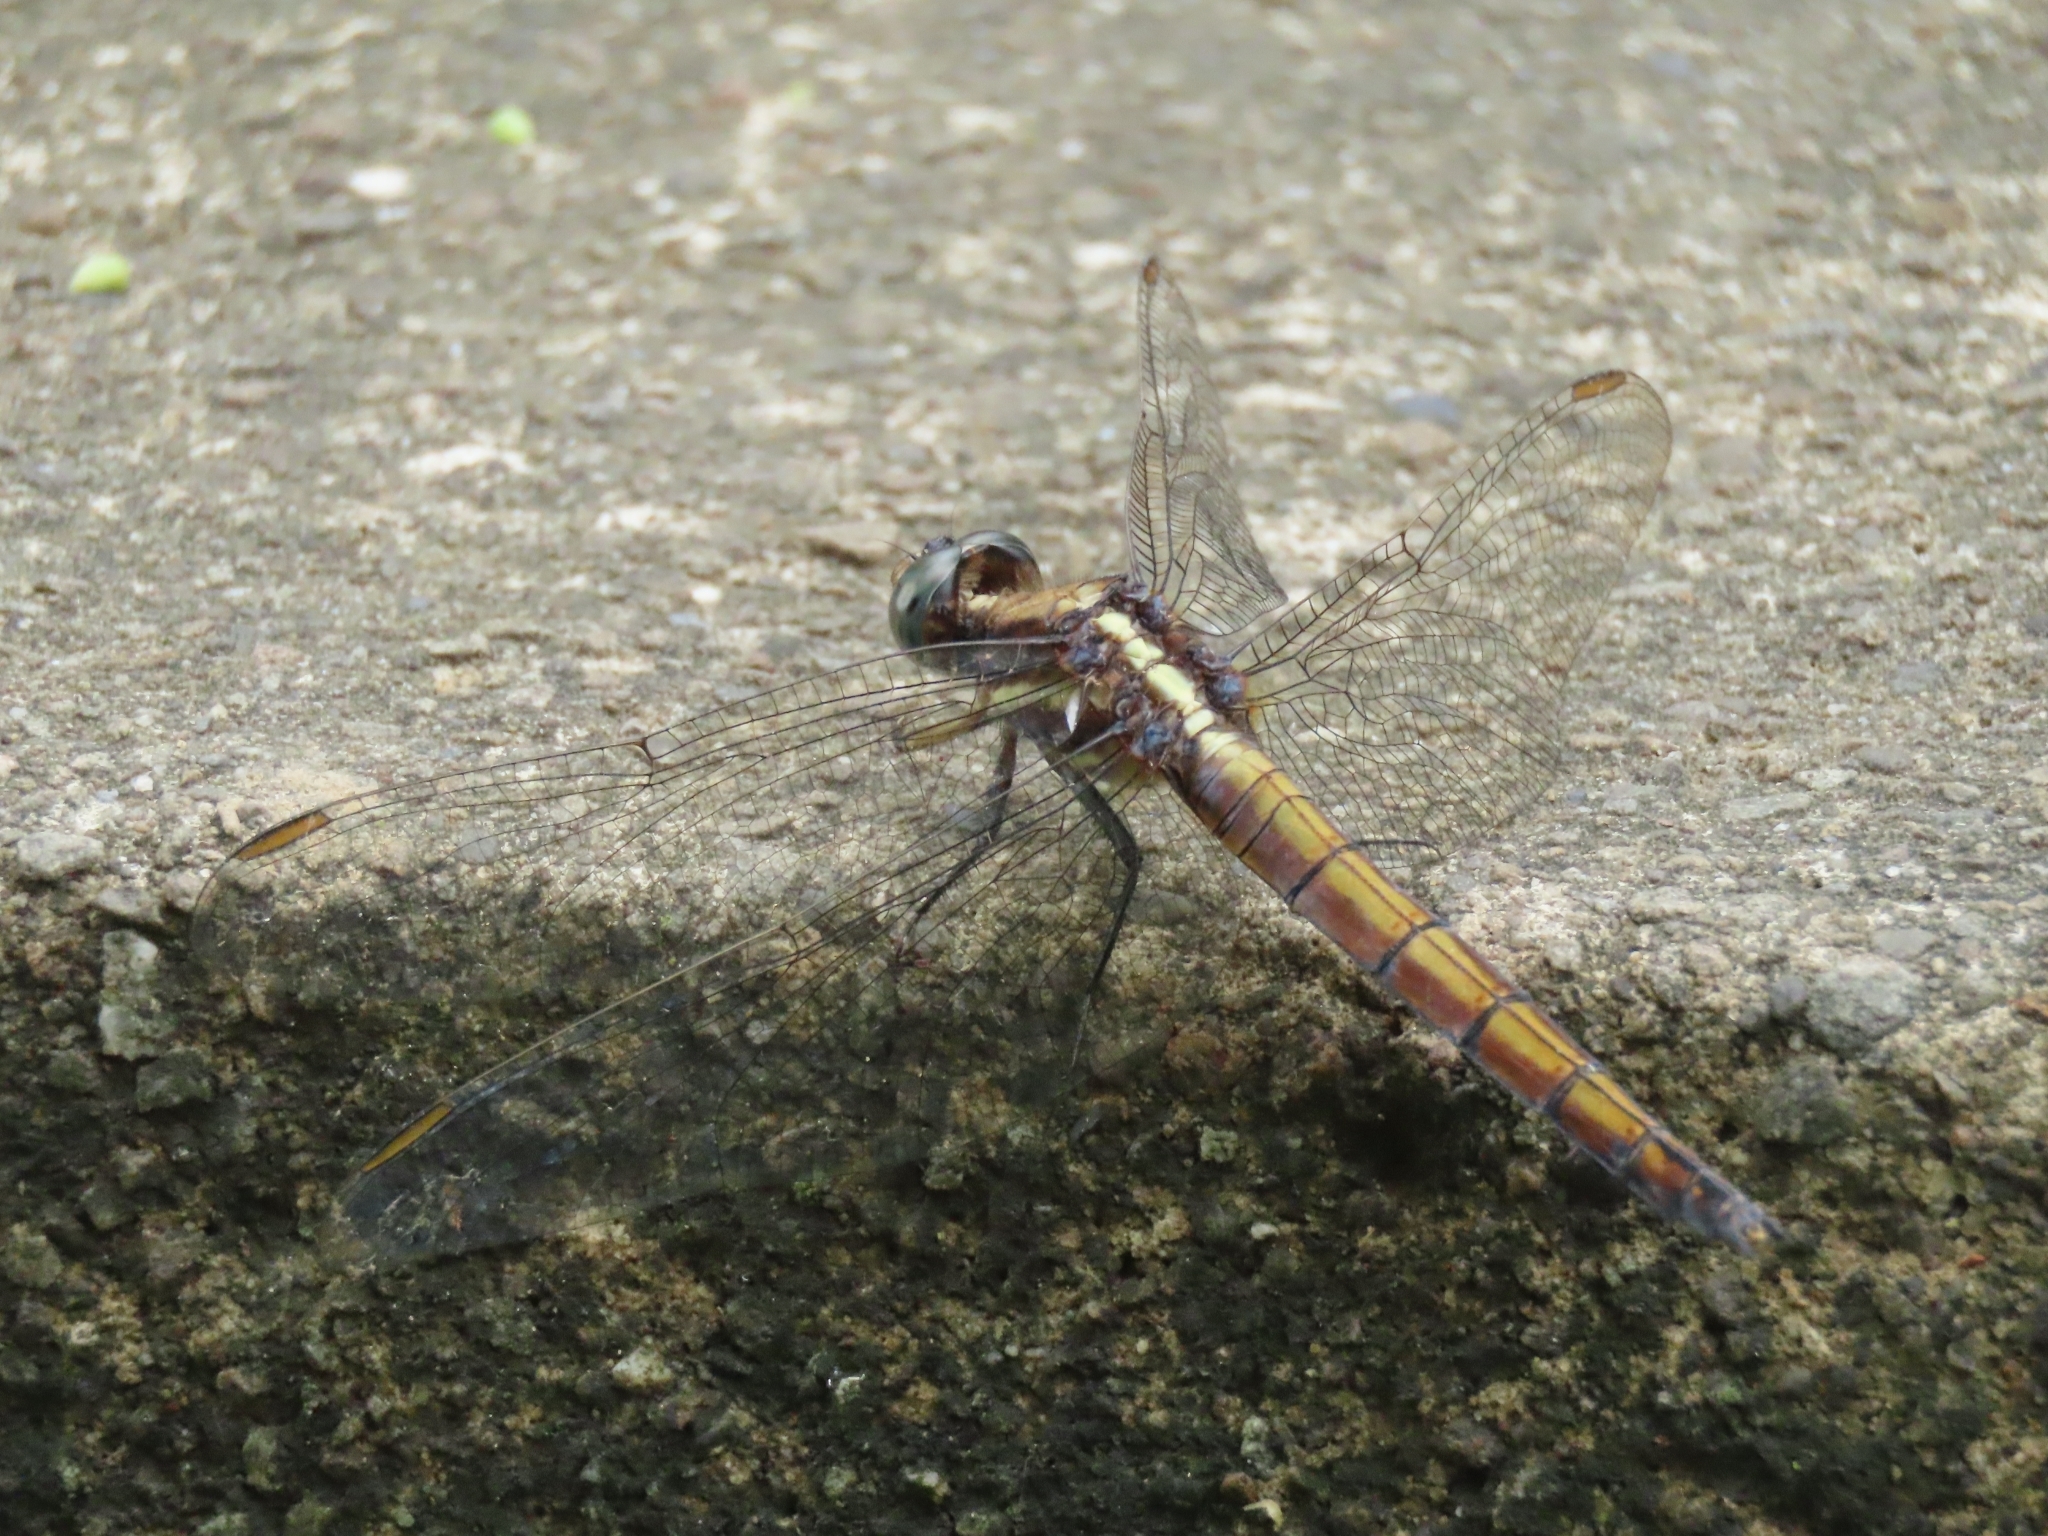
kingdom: Animalia
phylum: Arthropoda
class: Insecta
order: Odonata
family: Libellulidae
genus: Orthetrum
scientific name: Orthetrum glaucum
